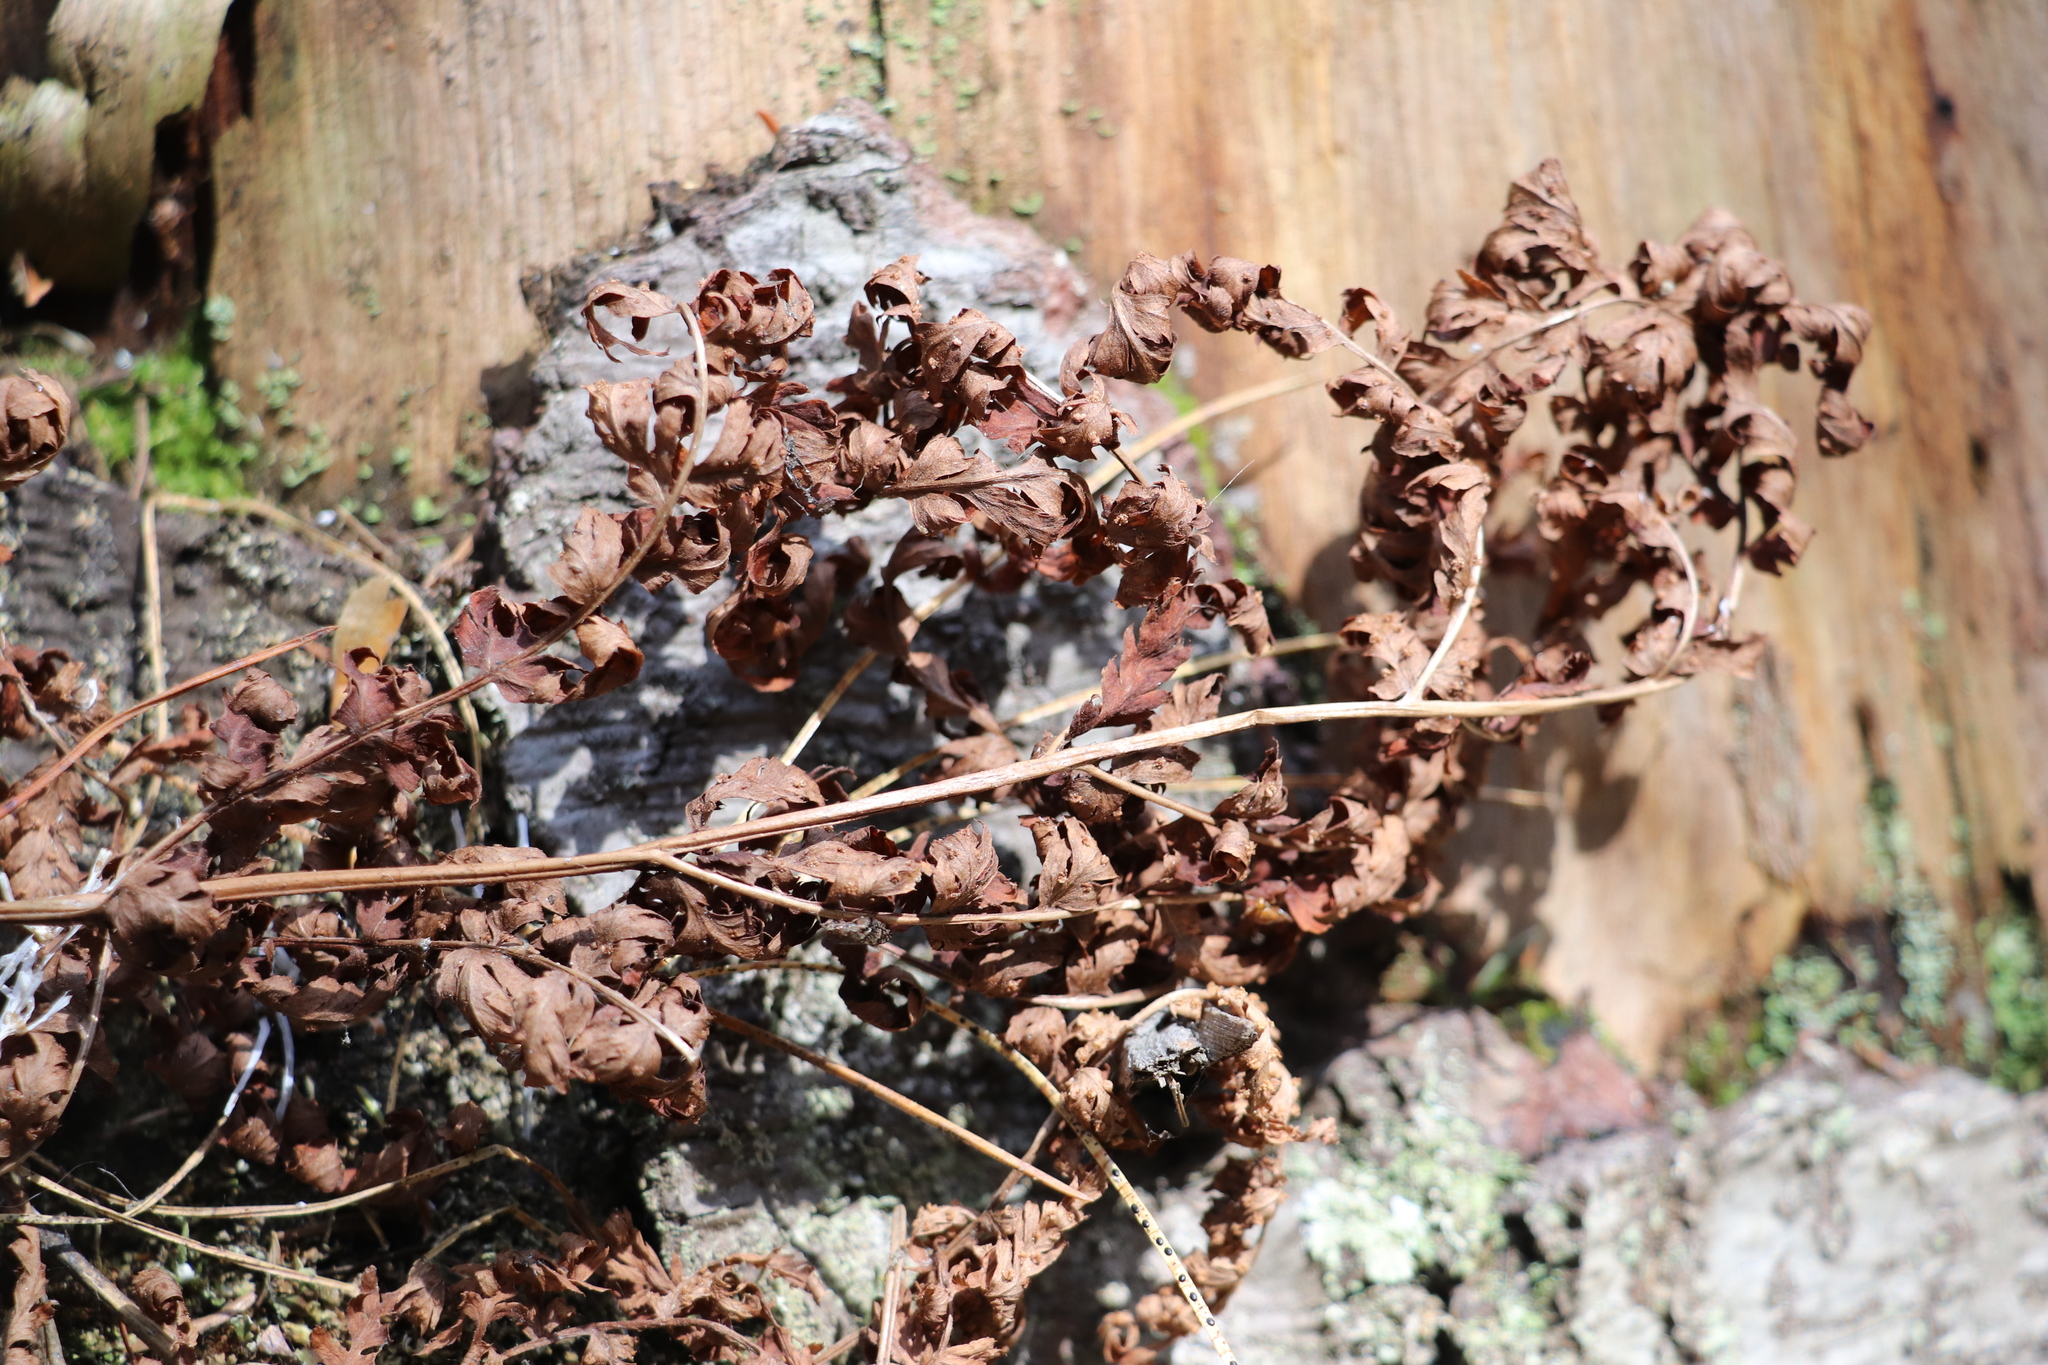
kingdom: Plantae
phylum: Tracheophyta
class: Polypodiopsida
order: Polypodiales
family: Athyriaceae
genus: Athyrium
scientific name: Athyrium filix-femina
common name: Lady fern
